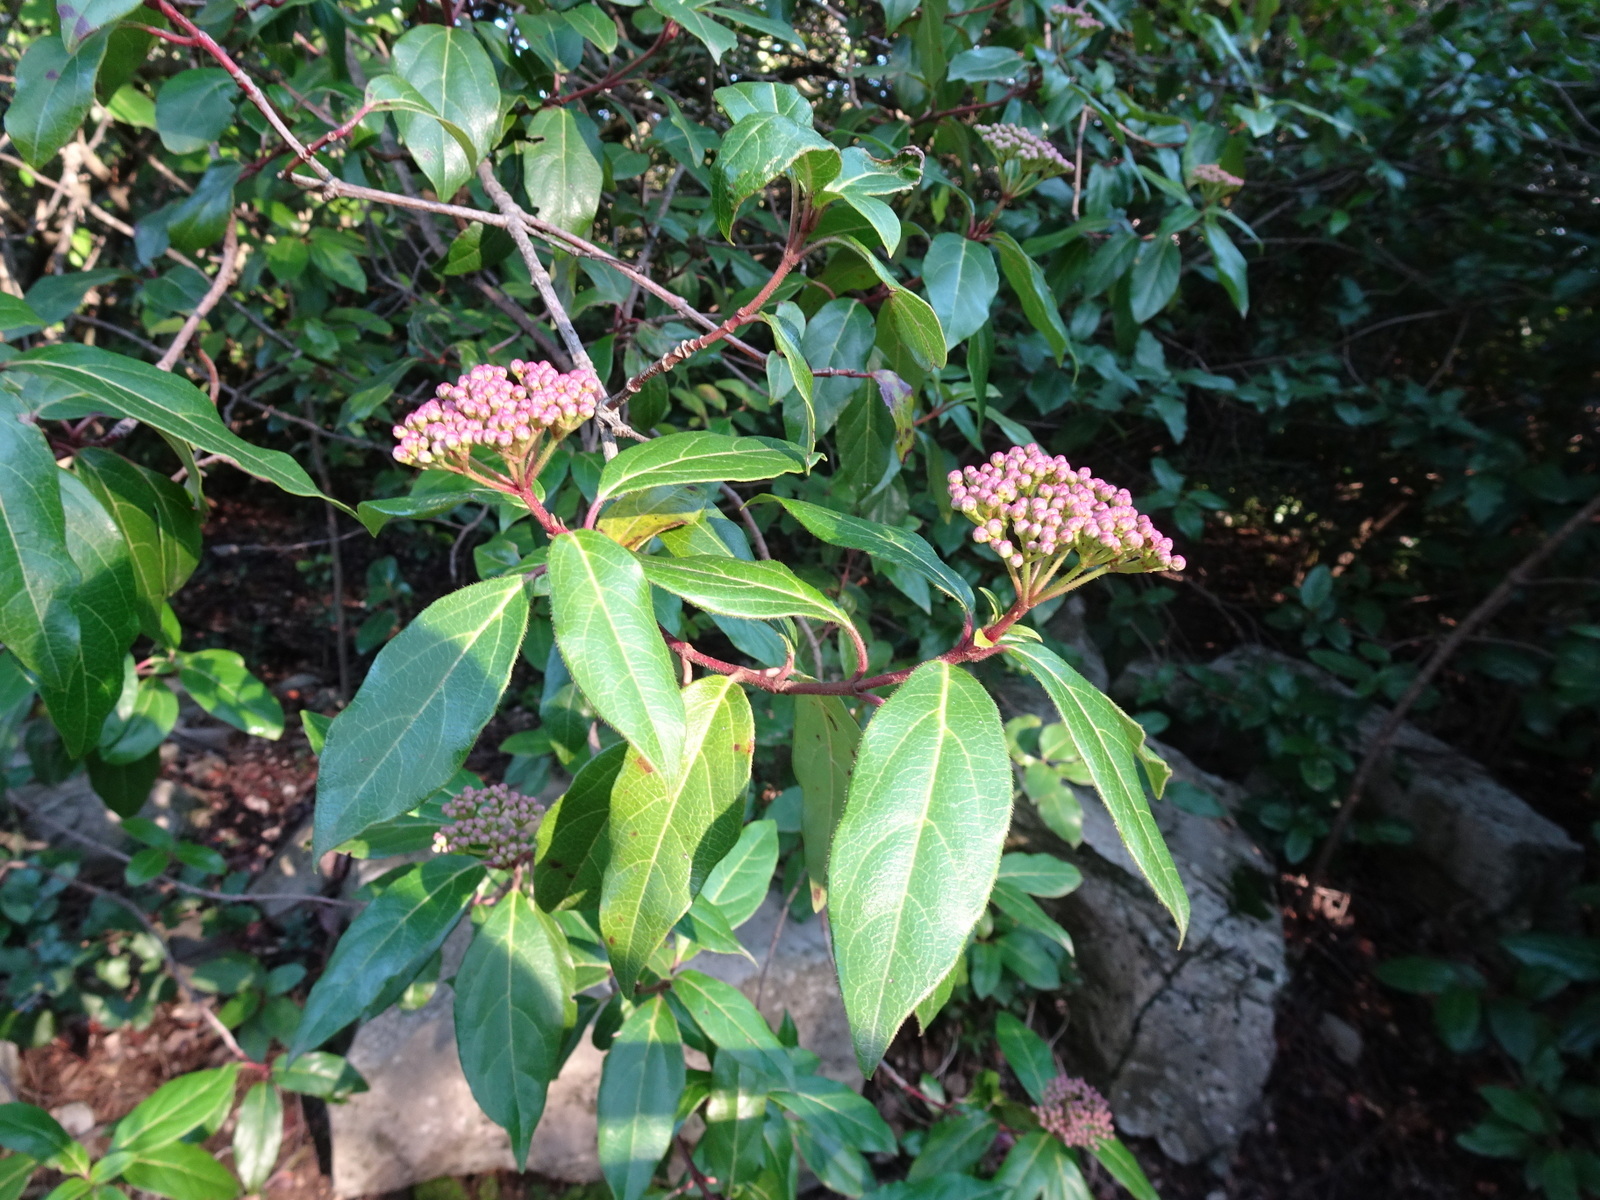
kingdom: Plantae
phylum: Tracheophyta
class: Magnoliopsida
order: Dipsacales
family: Viburnaceae
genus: Viburnum
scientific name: Viburnum tinus
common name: Laurustinus
